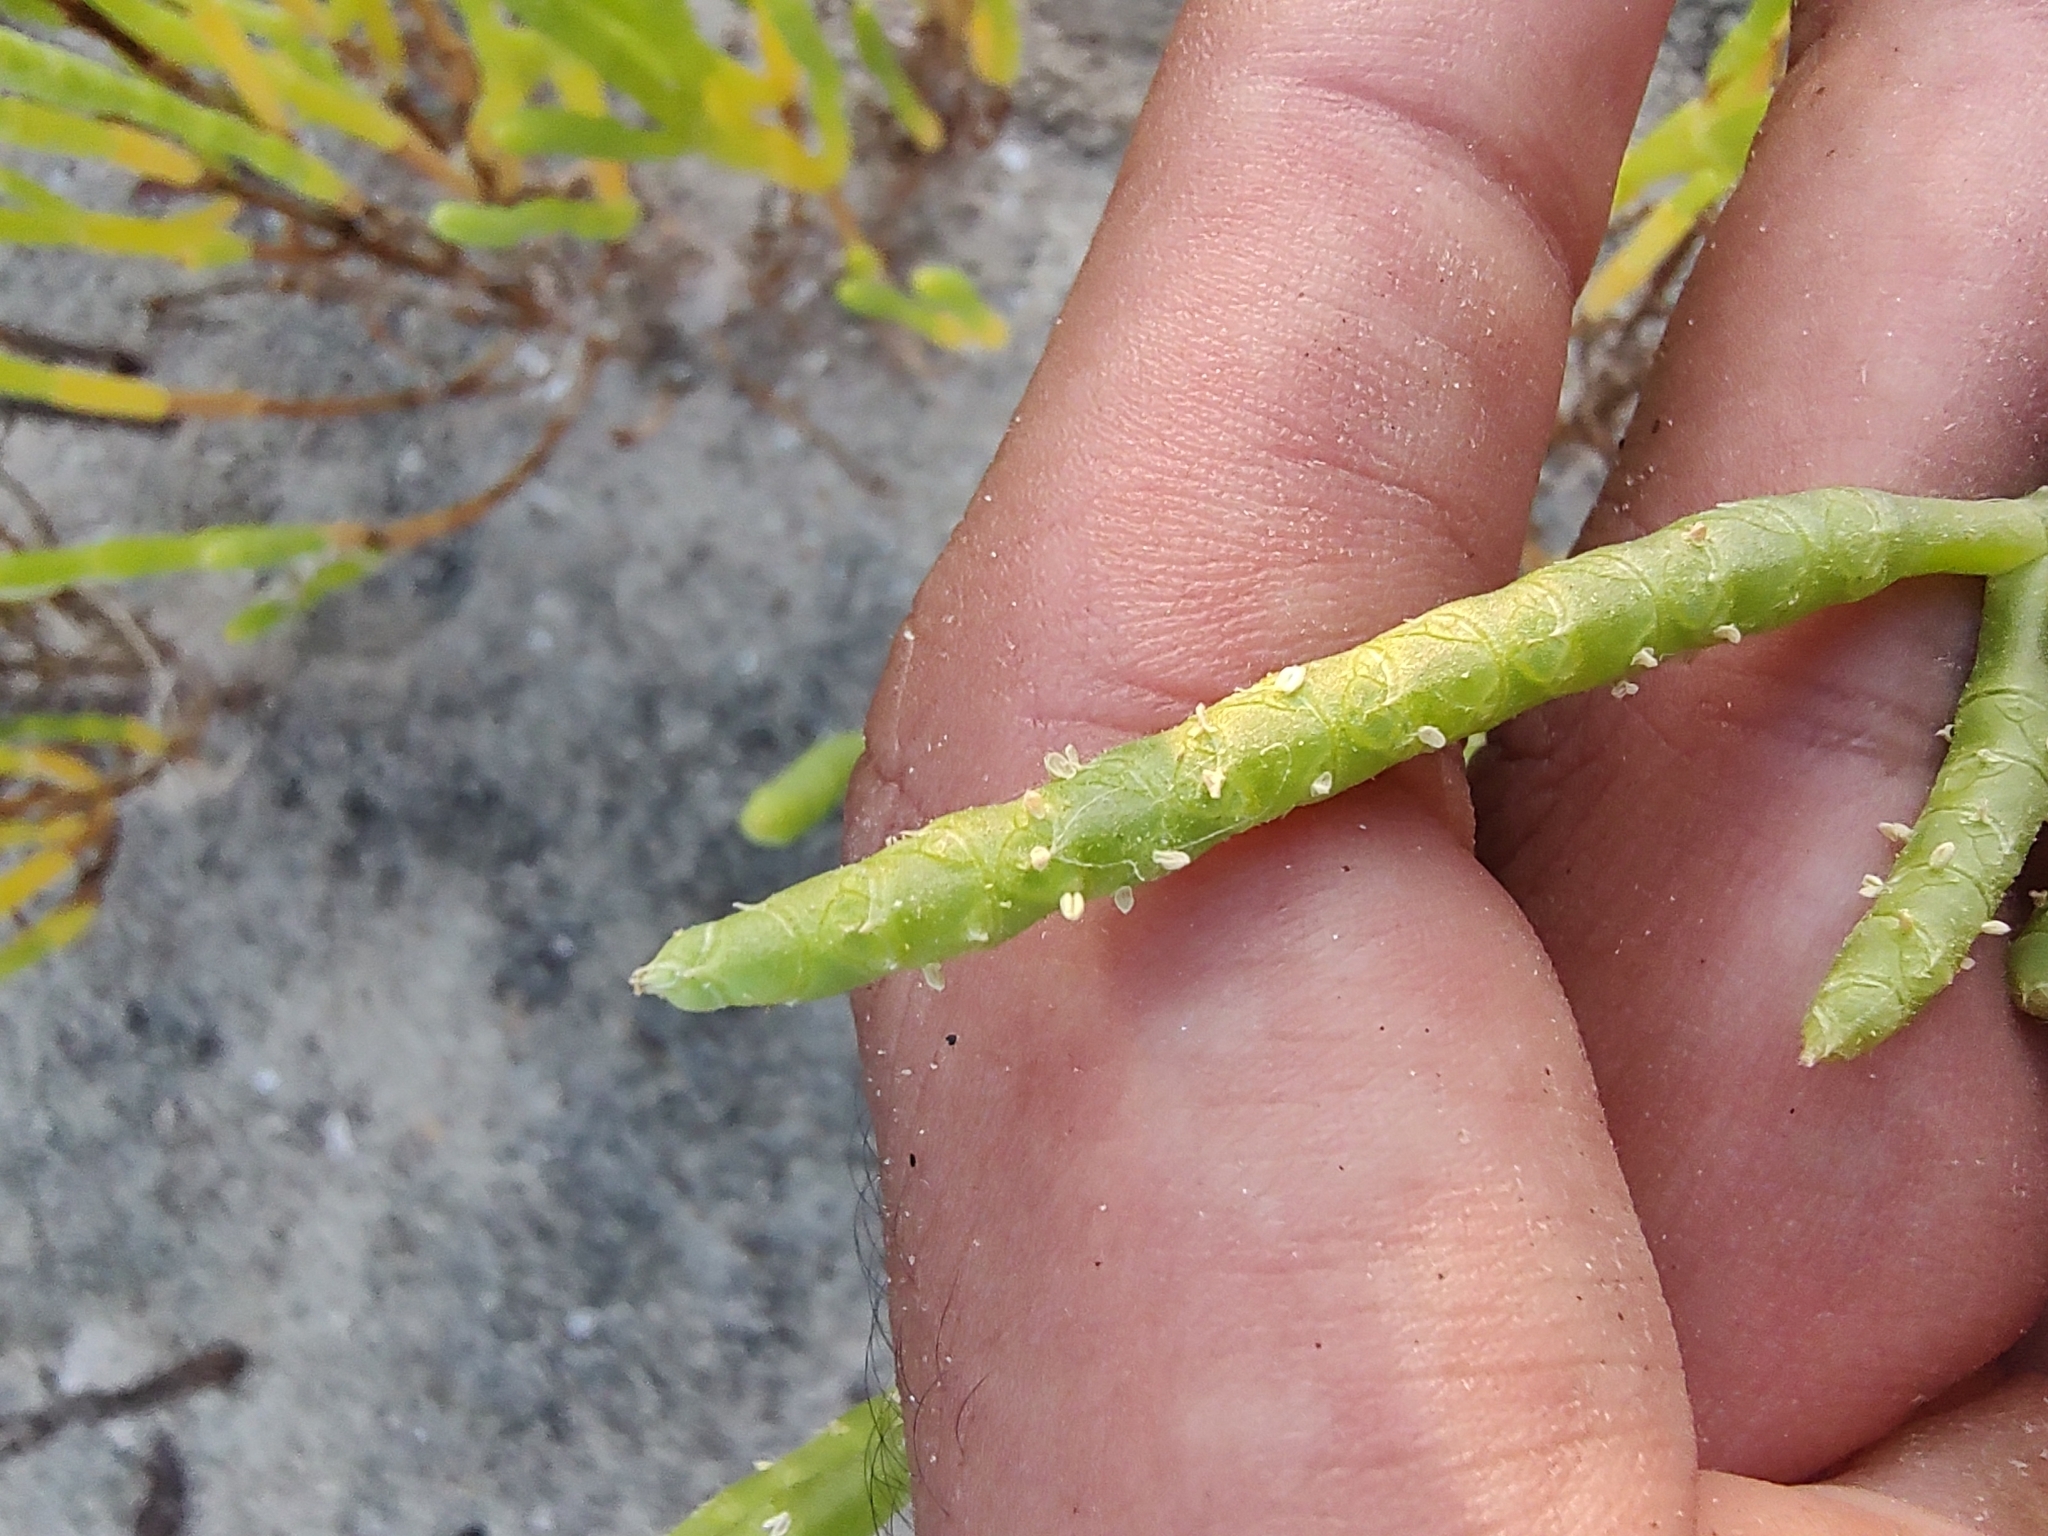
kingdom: Plantae
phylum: Tracheophyta
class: Magnoliopsida
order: Caryophyllales
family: Amaranthaceae
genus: Salicornia
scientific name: Salicornia bigelovii
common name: Dwarf glasswort
